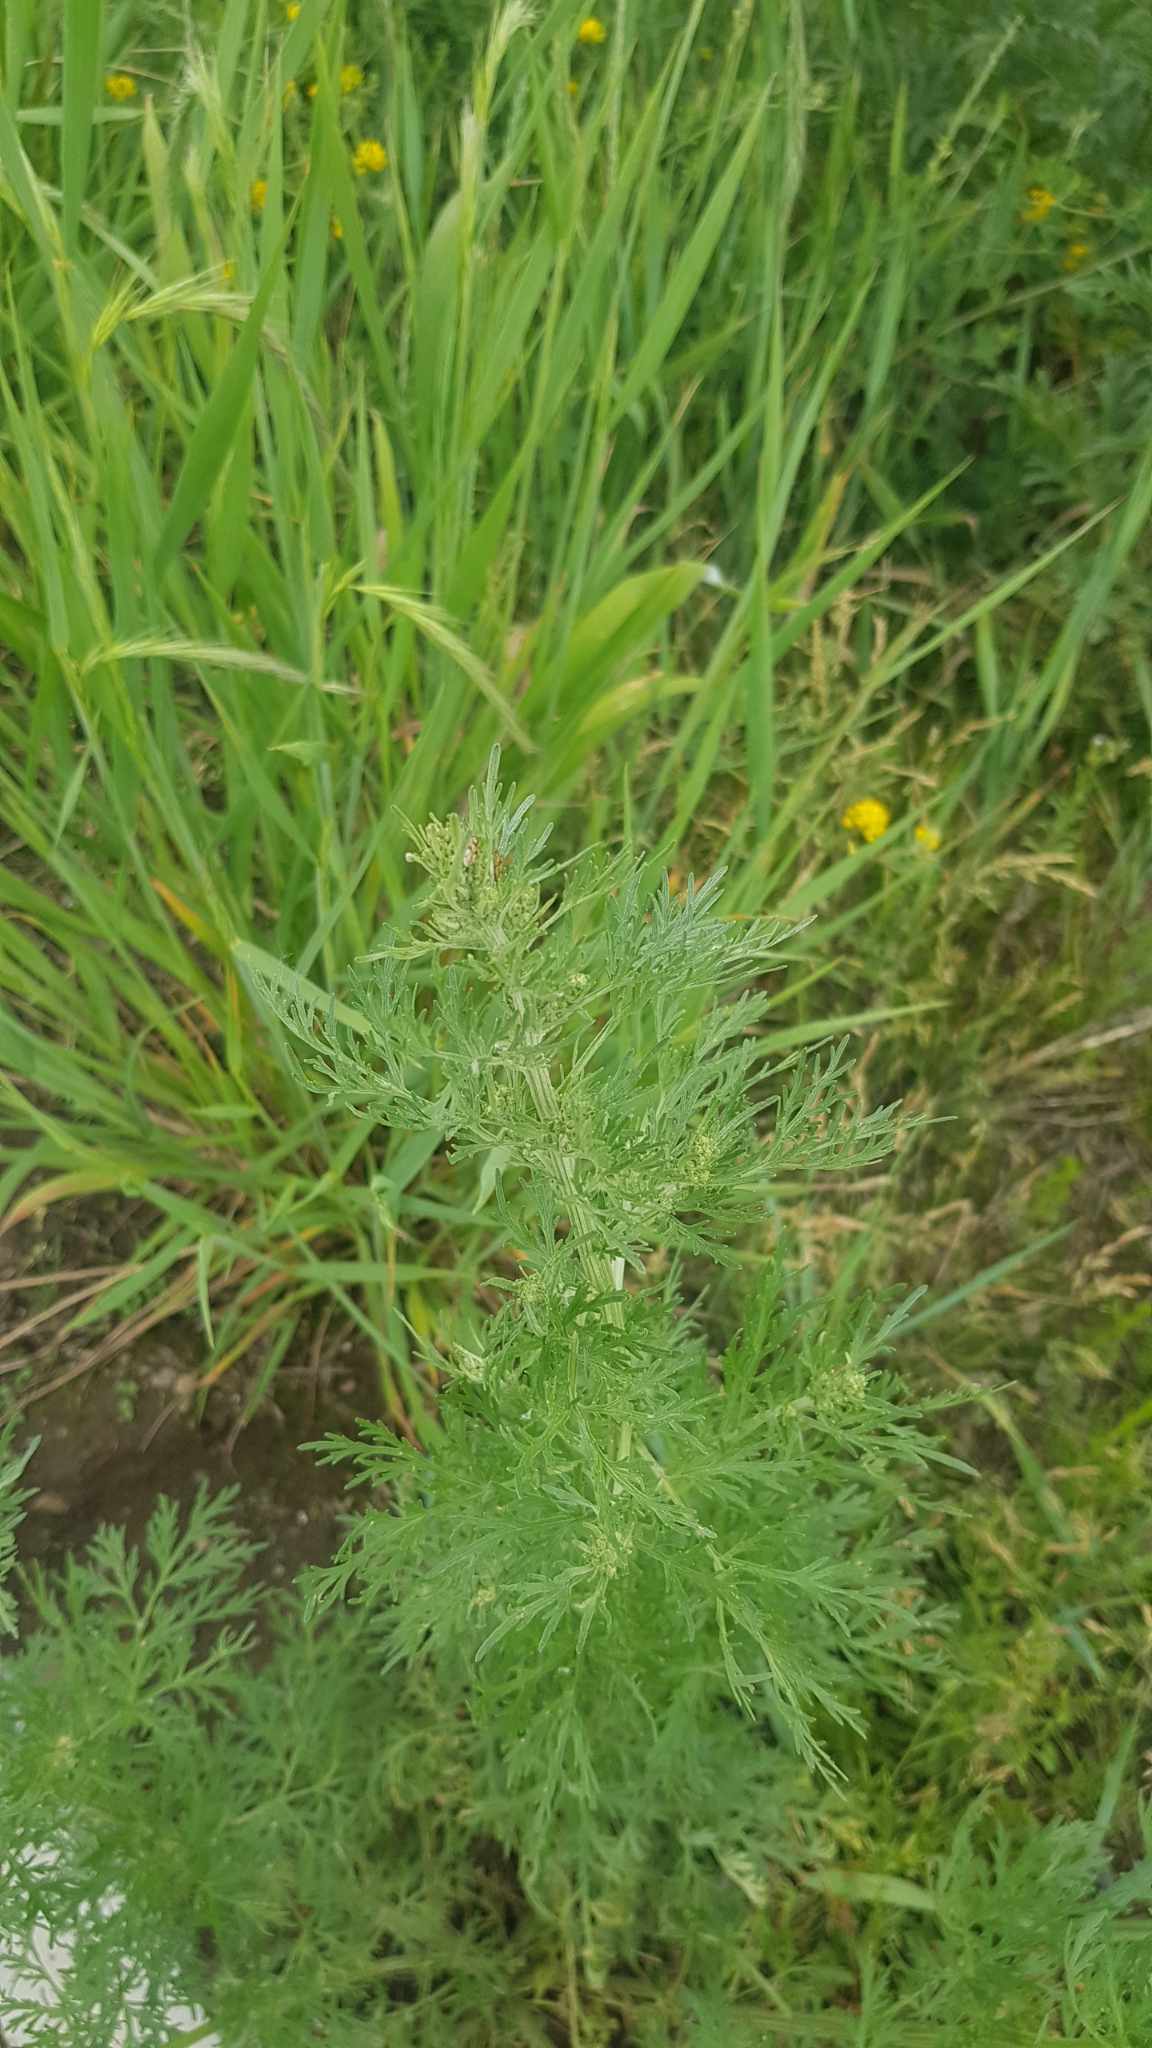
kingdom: Plantae
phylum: Tracheophyta
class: Magnoliopsida
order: Asterales
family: Asteraceae
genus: Artemisia
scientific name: Artemisia sieversiana
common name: Sieversian wormwood
